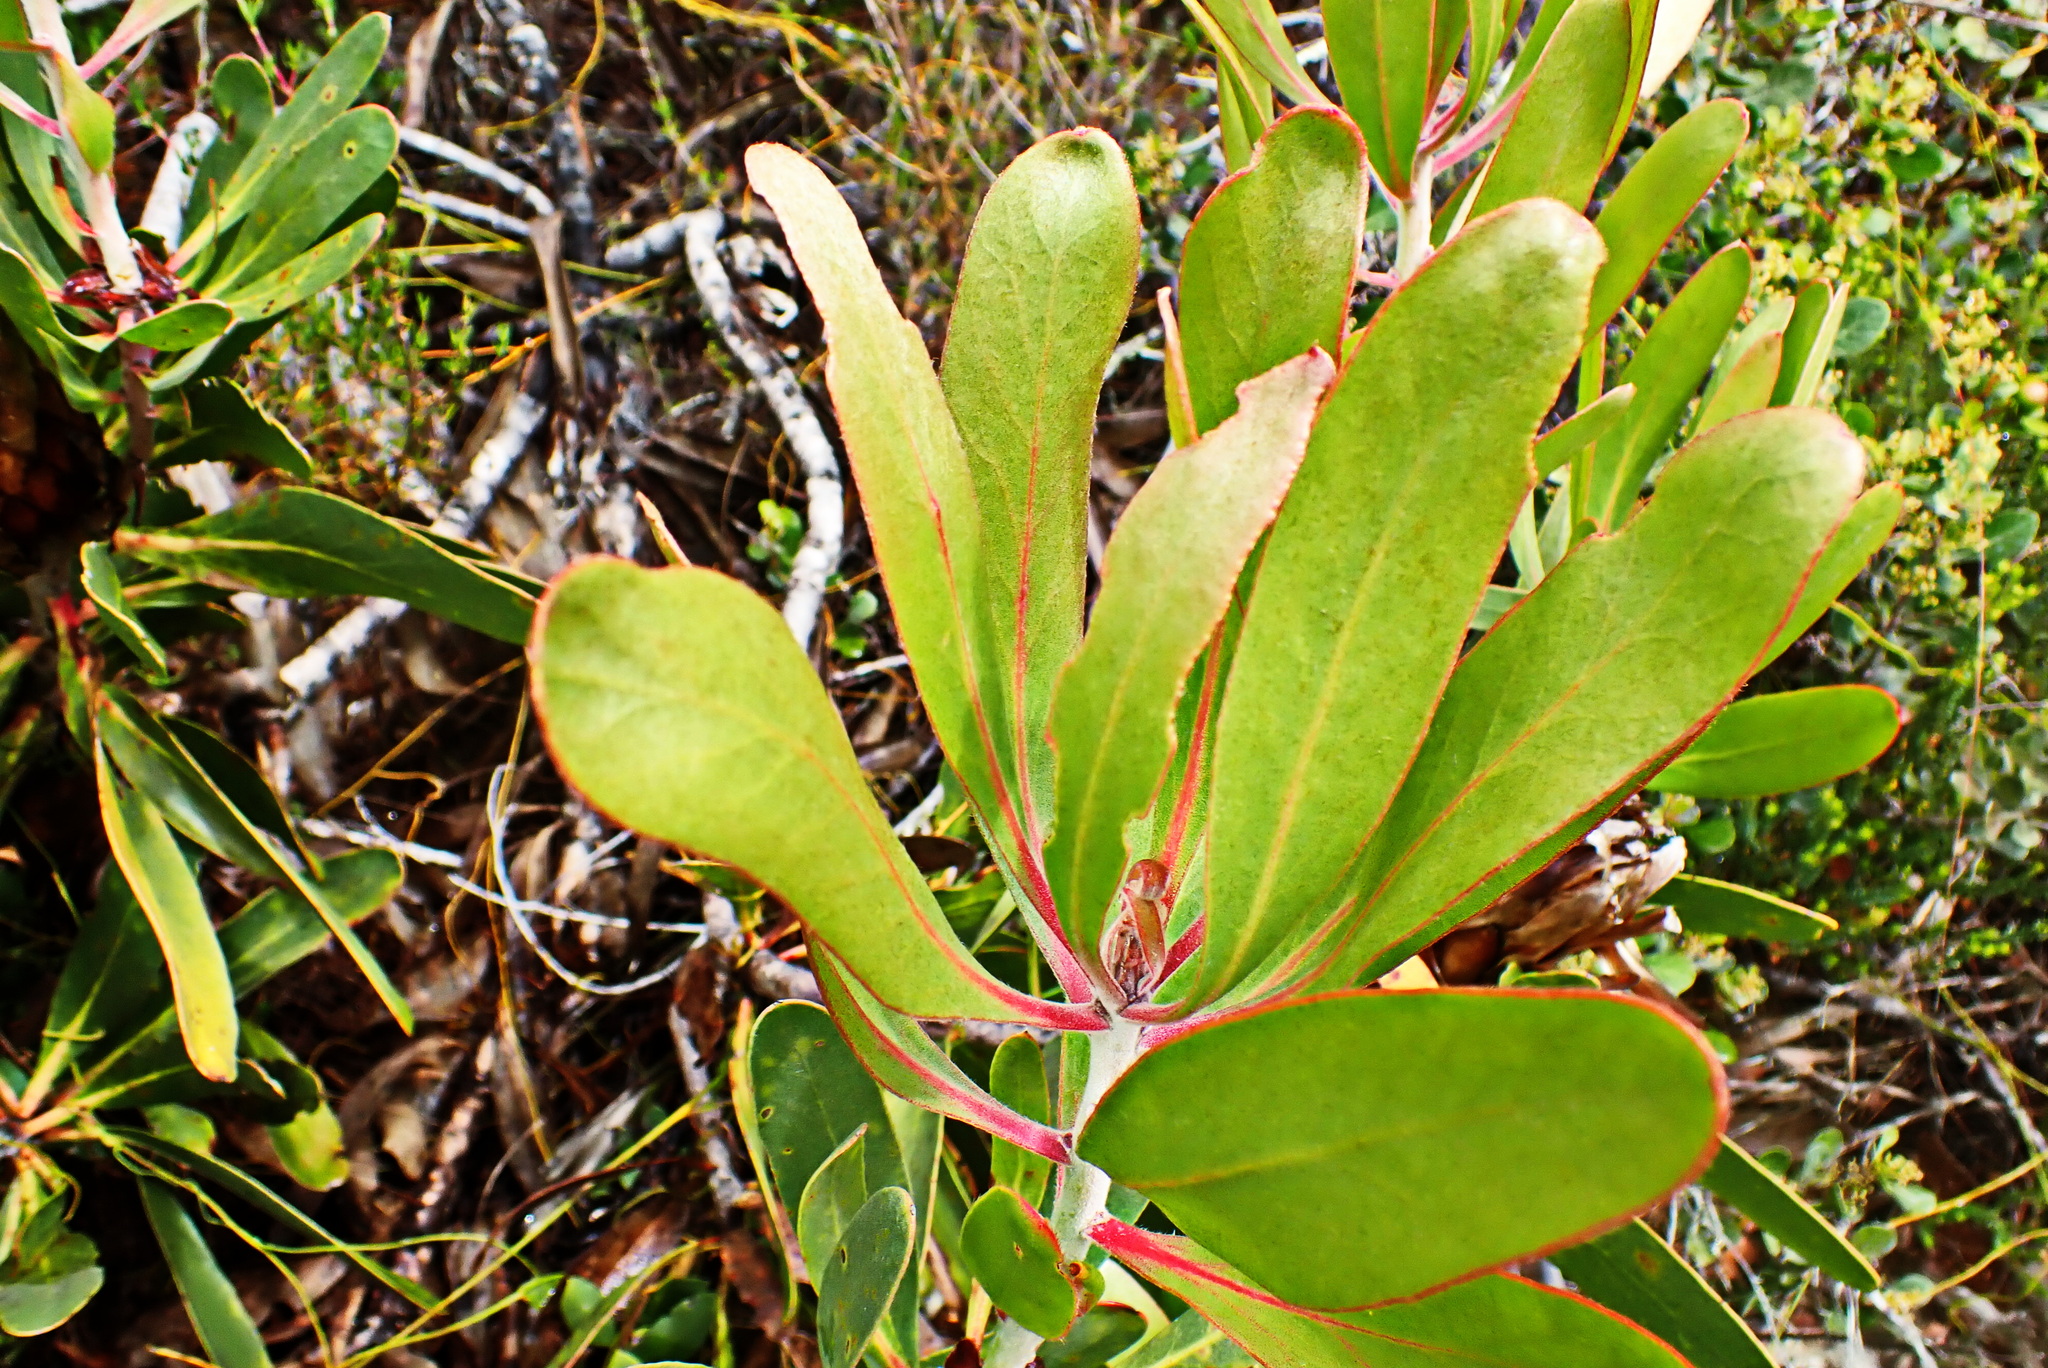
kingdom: Plantae
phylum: Tracheophyta
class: Magnoliopsida
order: Proteales
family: Proteaceae
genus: Protea
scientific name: Protea obtusifolia
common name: Bredasdorp sugarbush
